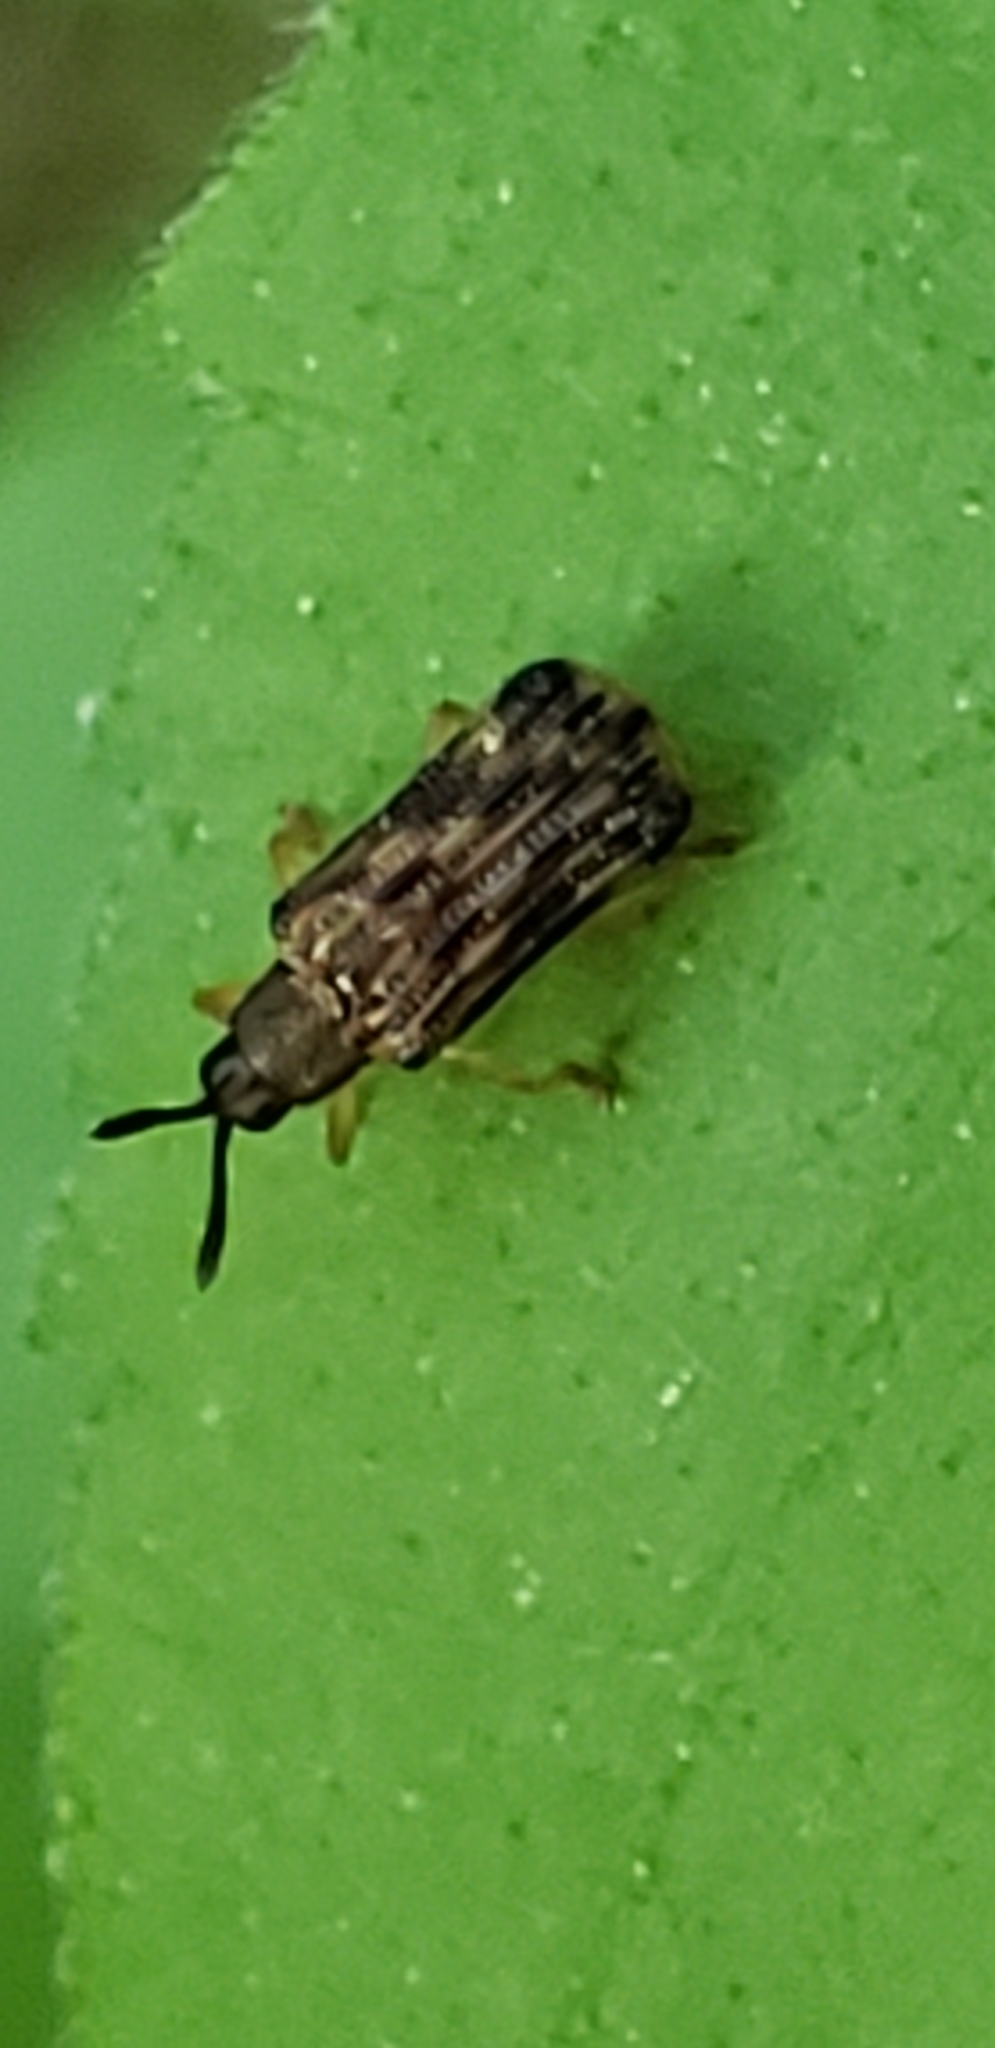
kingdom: Animalia
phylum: Arthropoda
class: Insecta
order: Coleoptera
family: Chrysomelidae
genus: Sumitrosis
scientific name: Sumitrosis inaequalis
